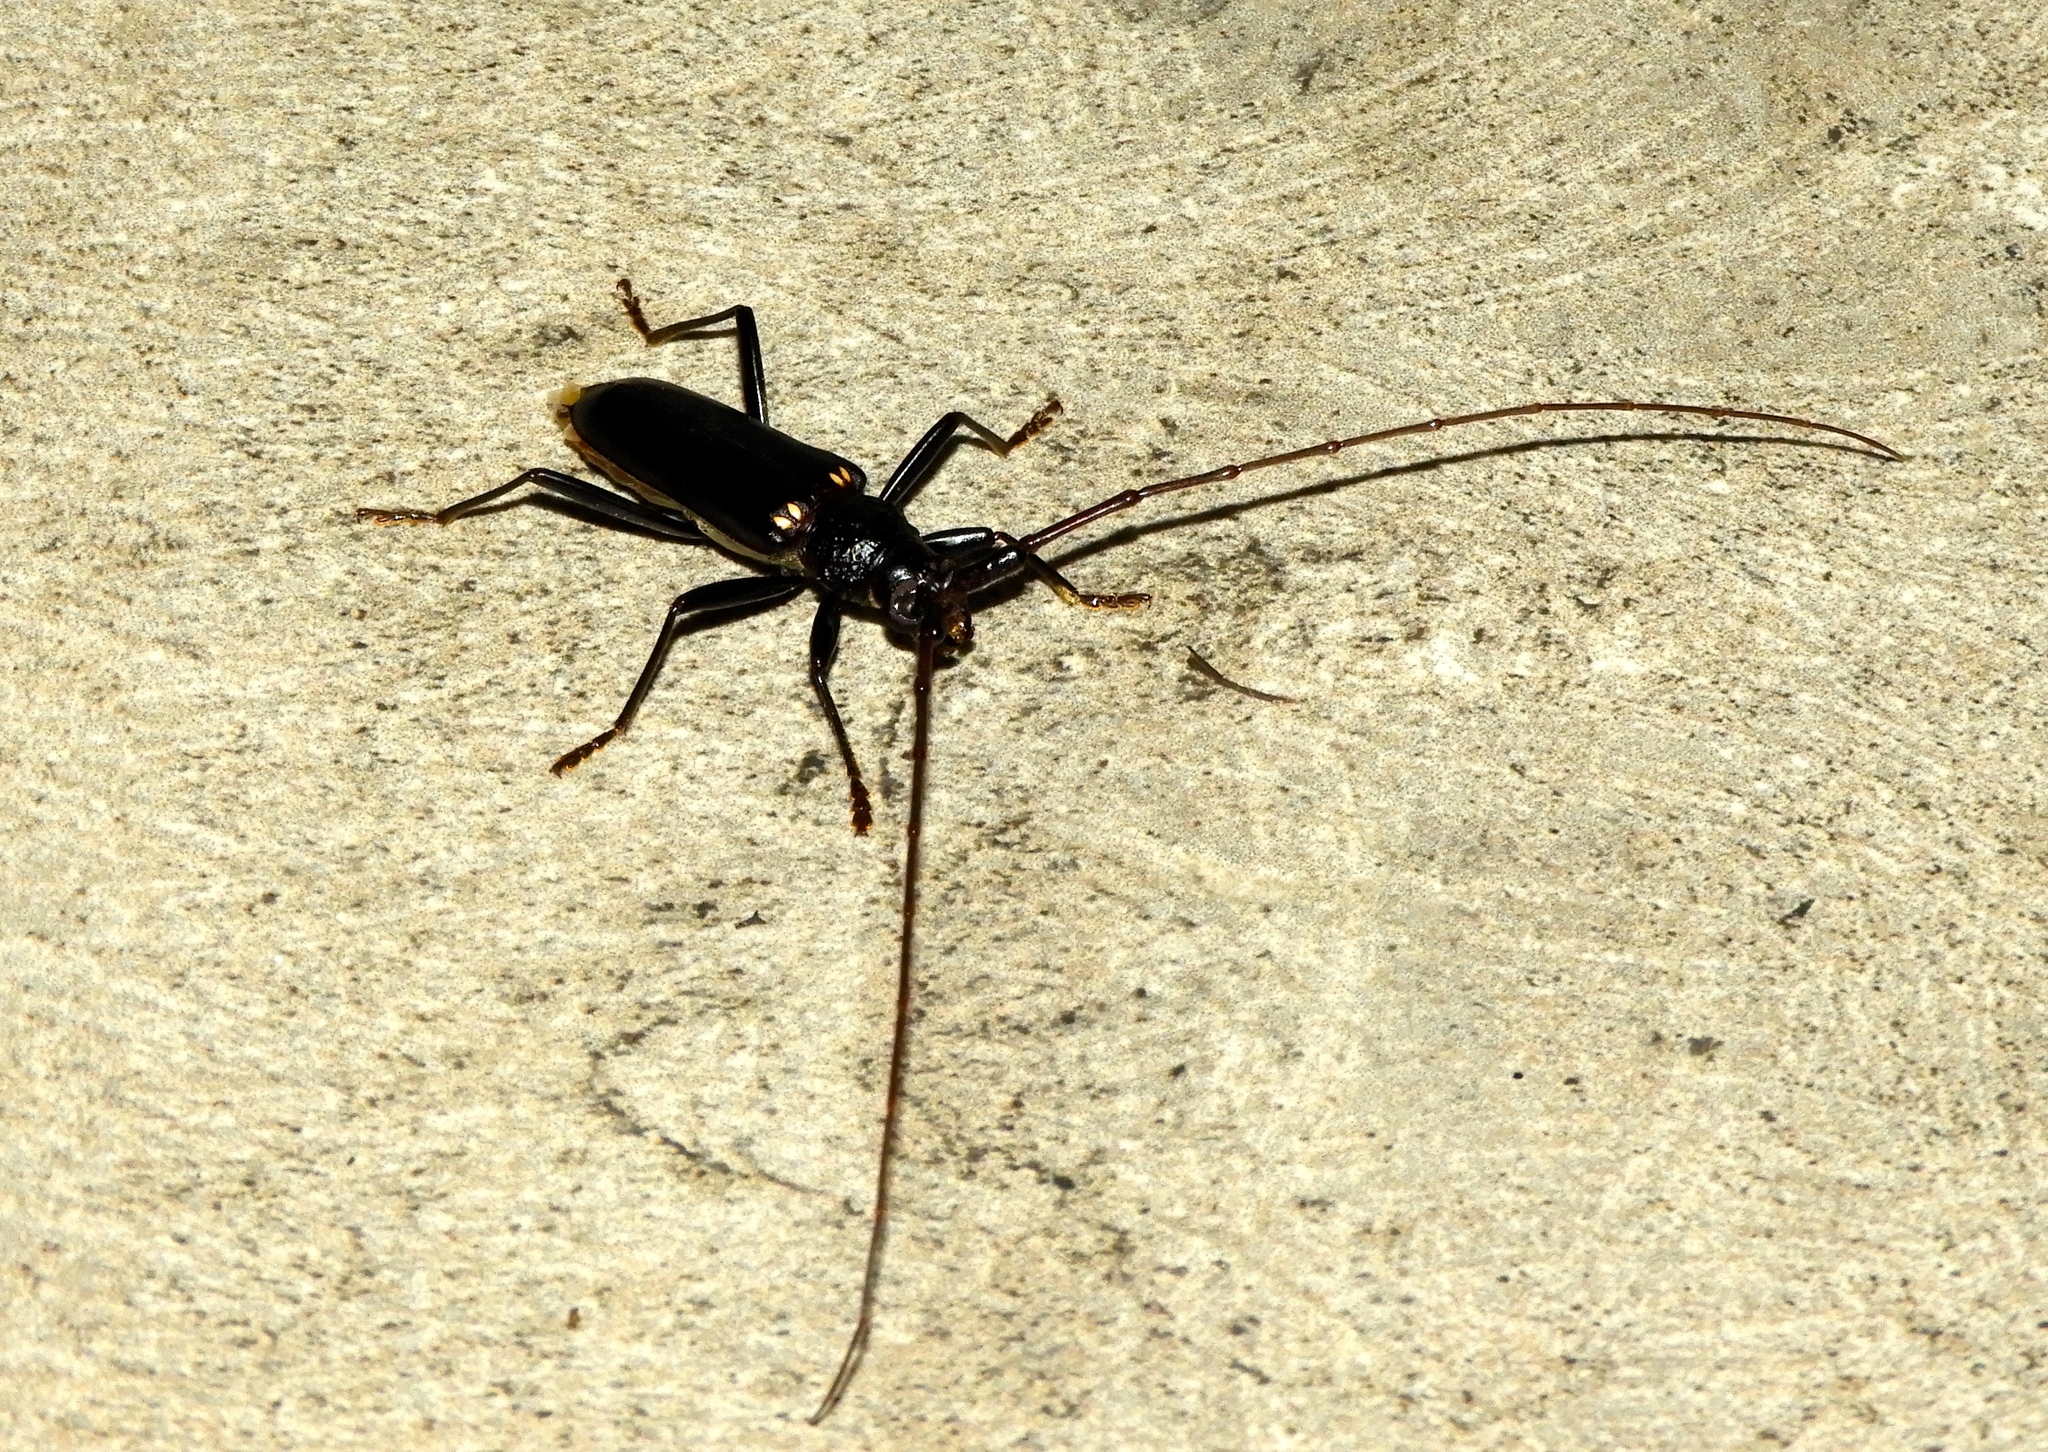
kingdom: Animalia
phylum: Arthropoda
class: Insecta
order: Coleoptera
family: Cerambycidae
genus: Susuacanga
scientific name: Susuacanga ulkei
